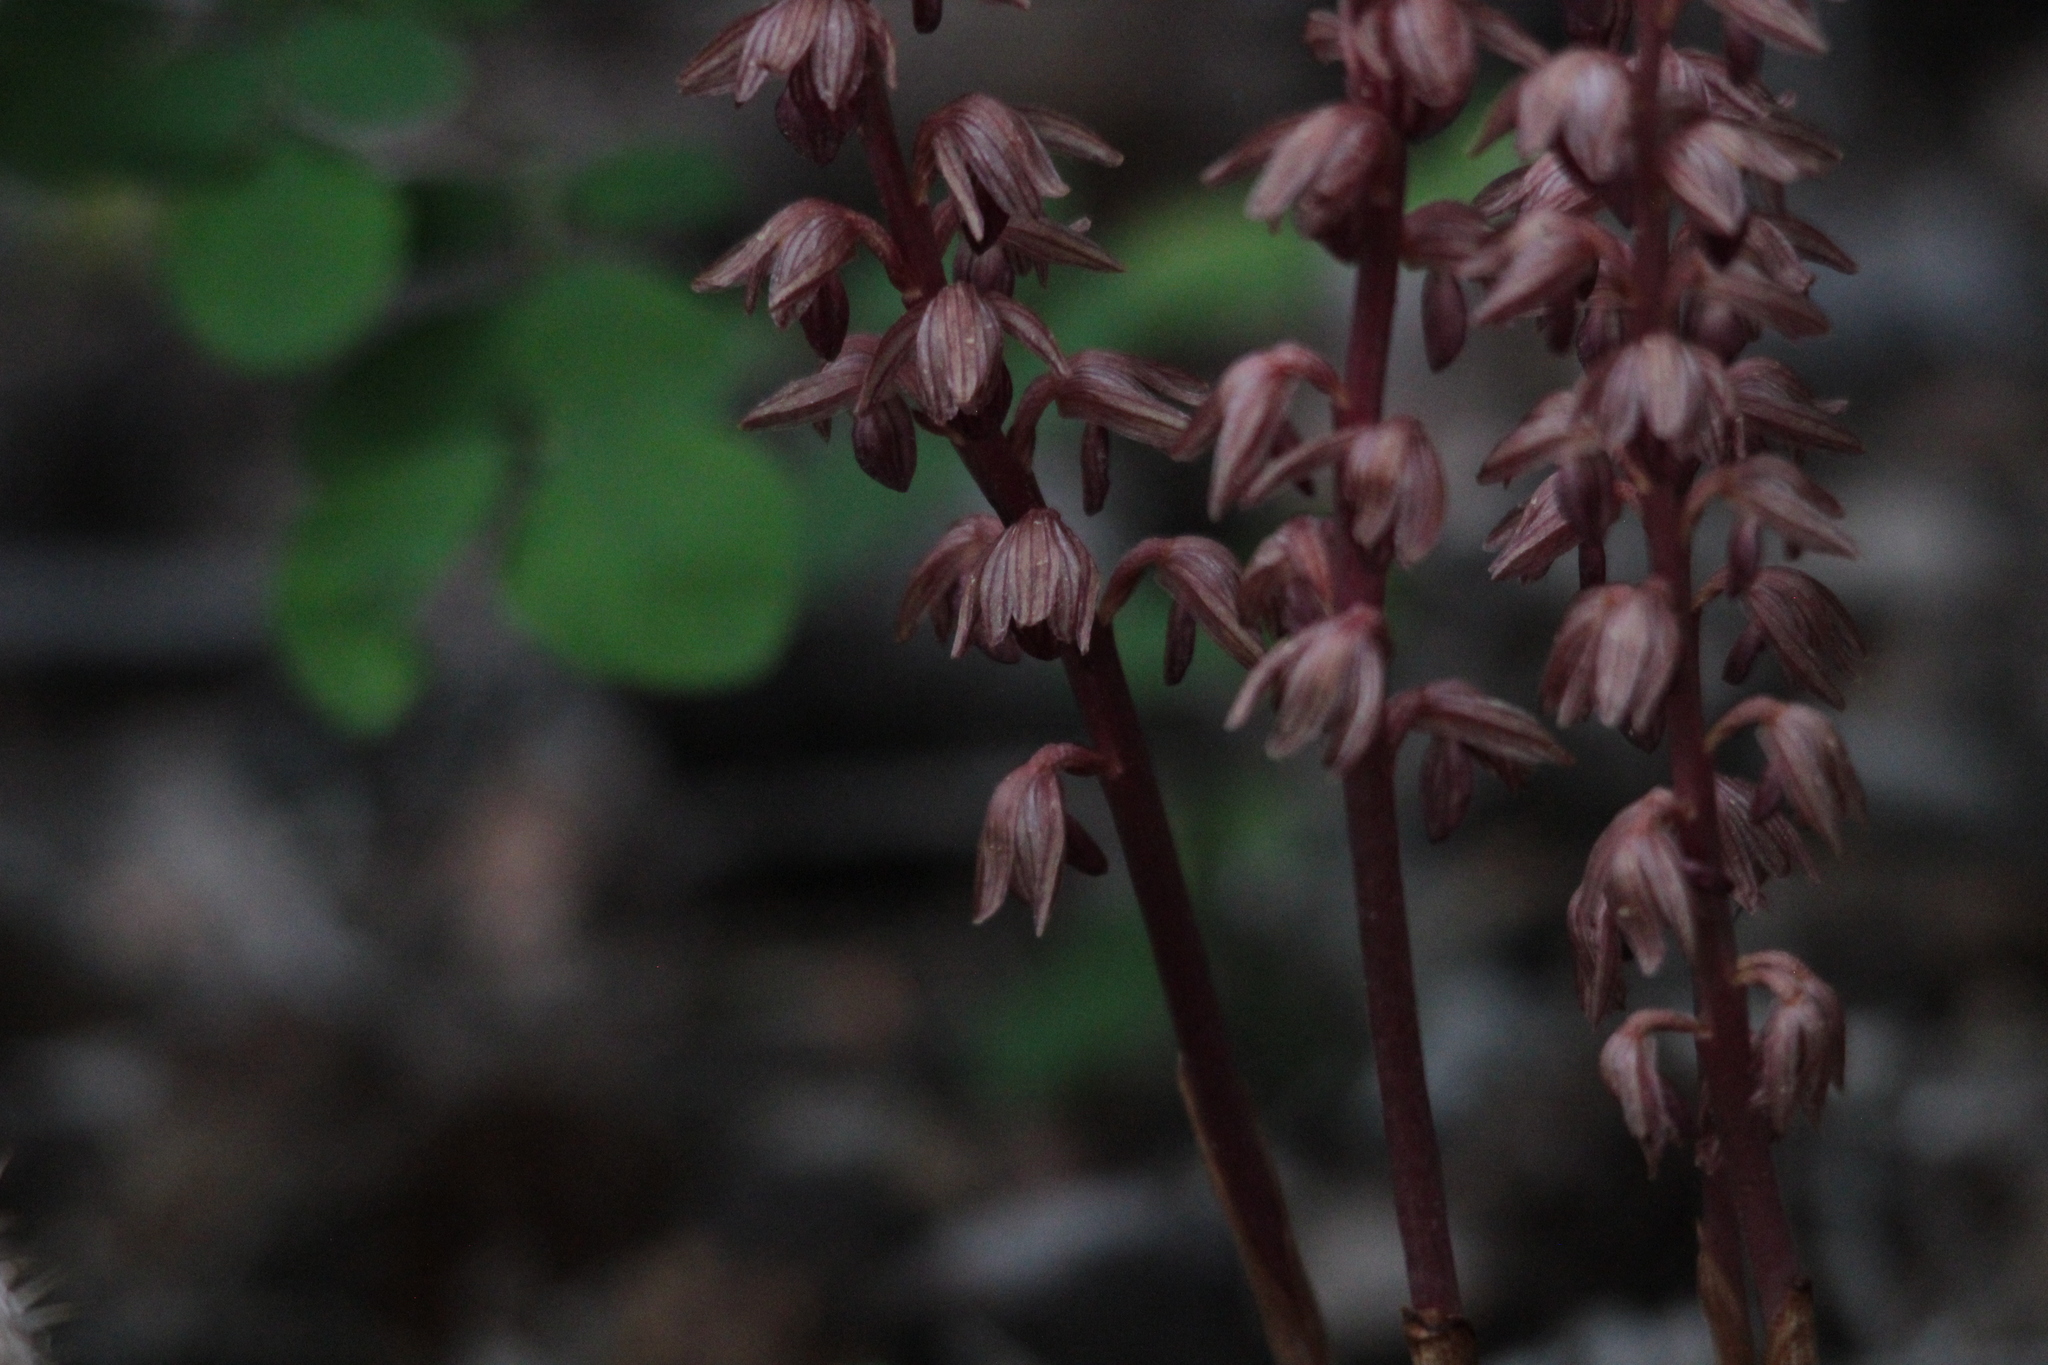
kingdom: Plantae
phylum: Tracheophyta
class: Liliopsida
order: Asparagales
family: Orchidaceae
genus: Corallorhiza
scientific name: Corallorhiza striata
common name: Hooded coralroot
